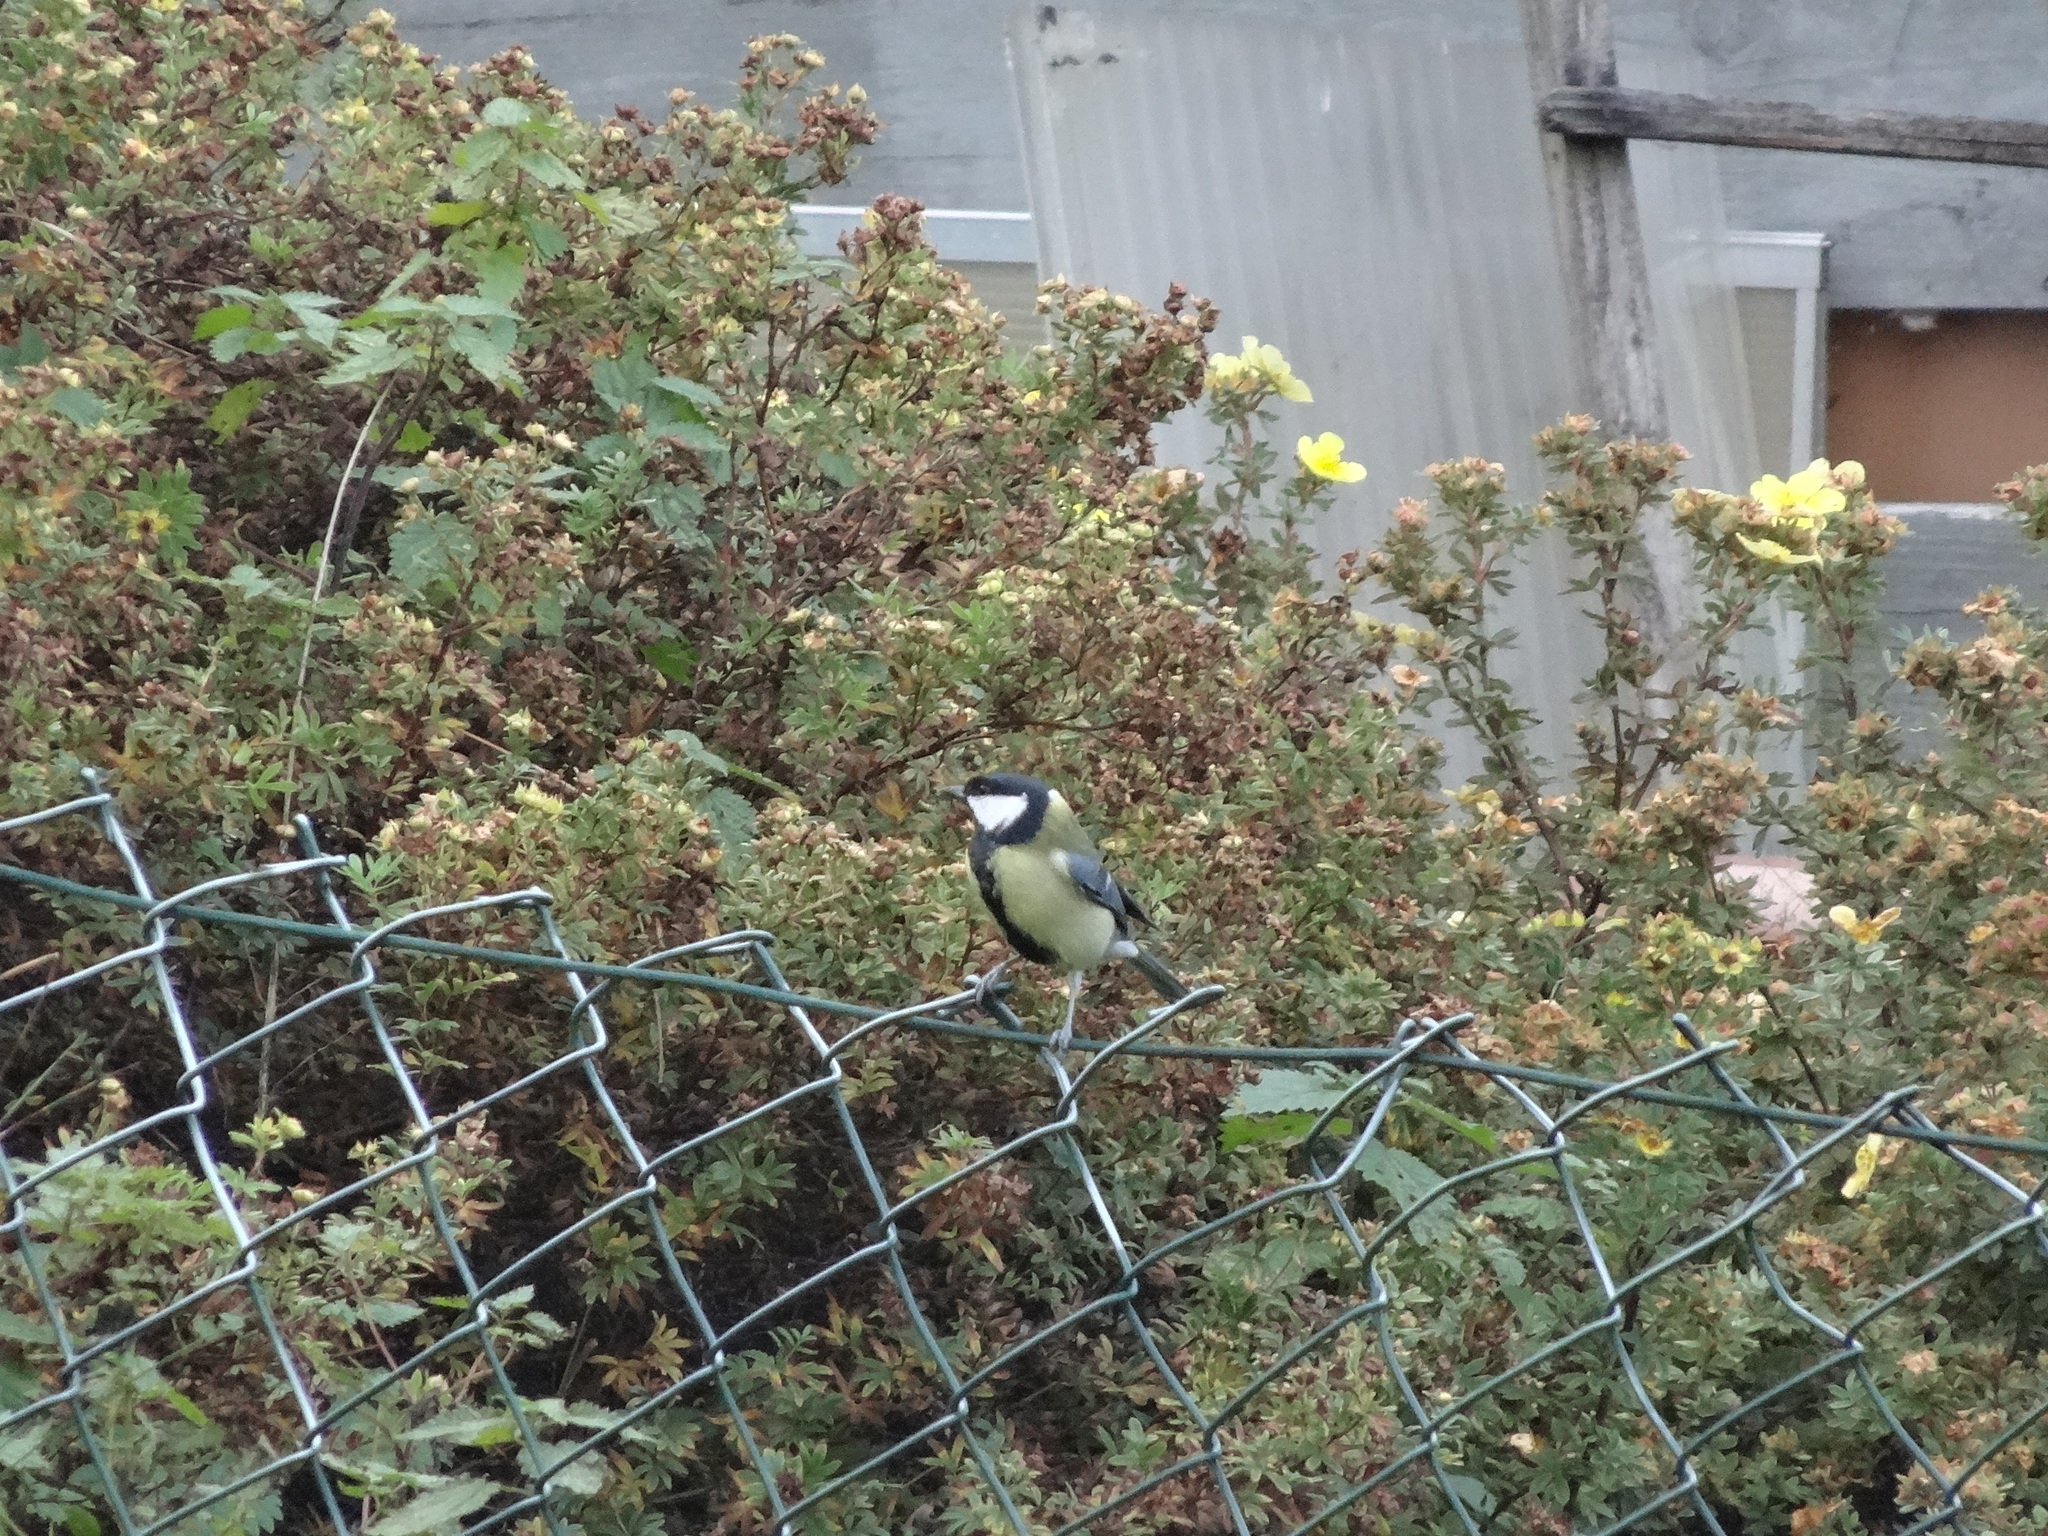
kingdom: Animalia
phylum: Chordata
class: Aves
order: Passeriformes
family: Paridae
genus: Parus
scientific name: Parus major
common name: Great tit
